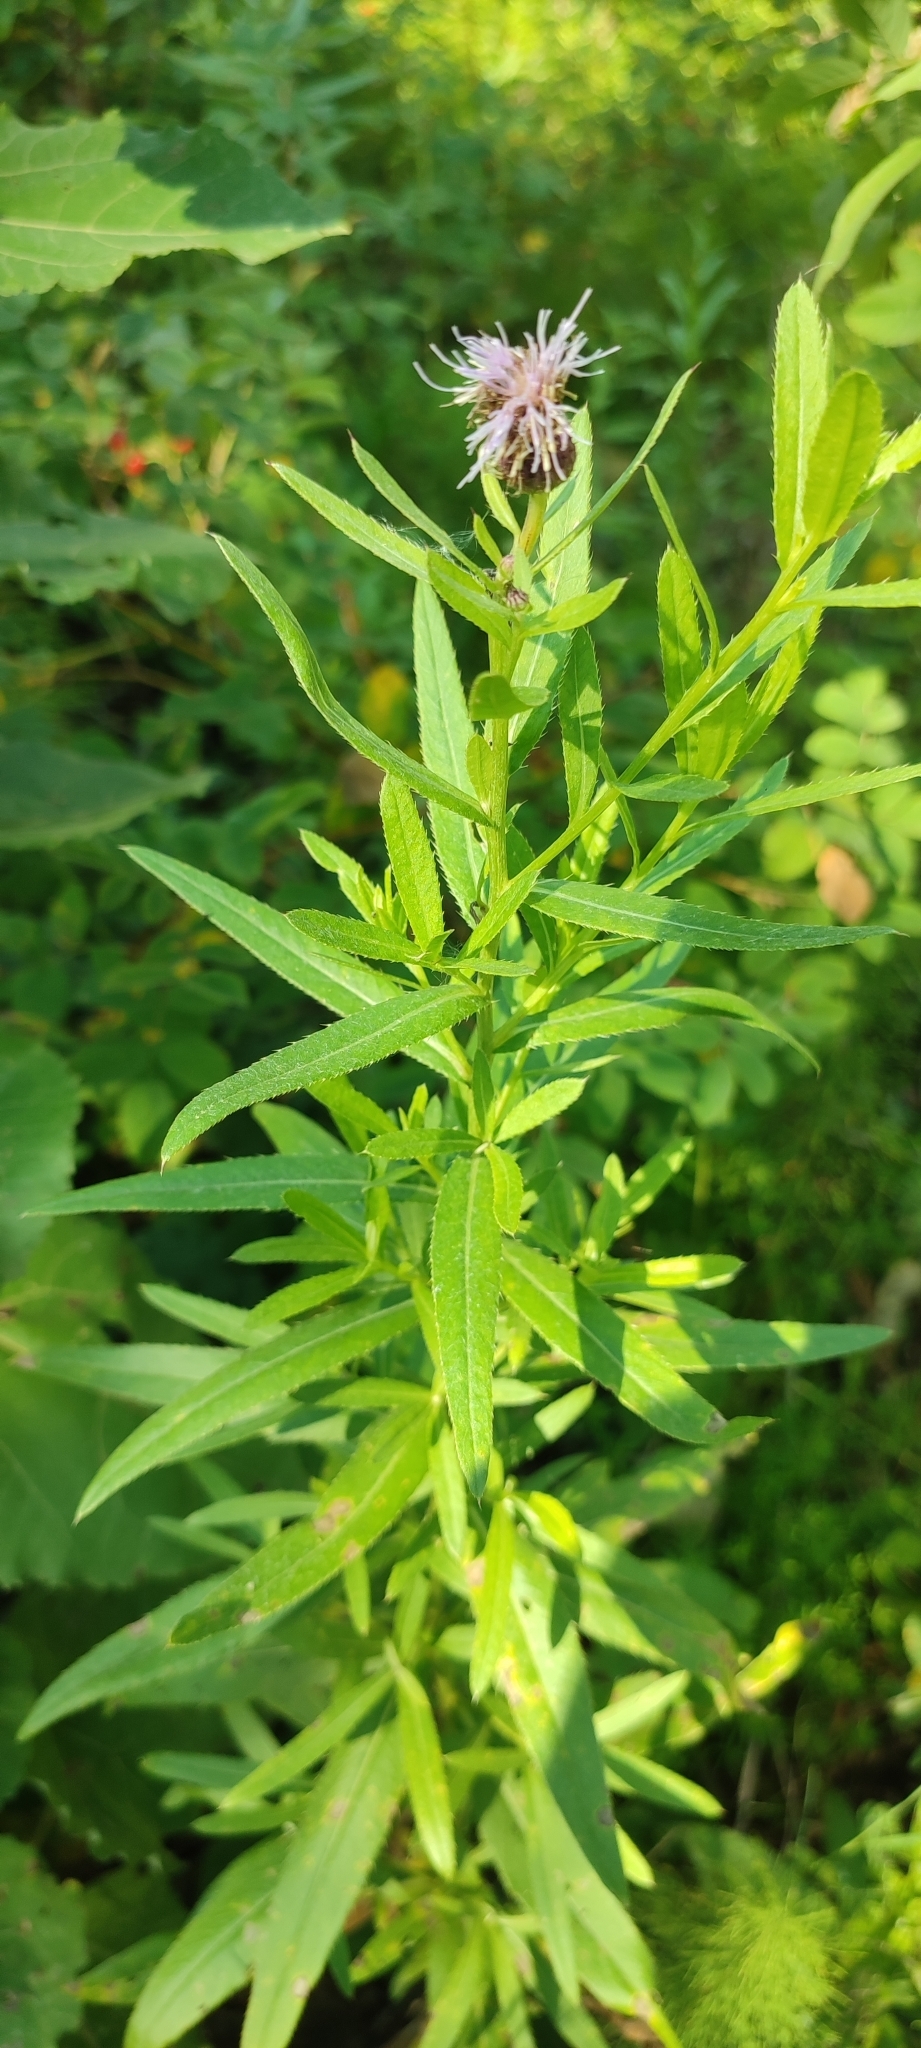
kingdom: Plantae
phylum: Tracheophyta
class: Magnoliopsida
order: Asterales
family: Asteraceae
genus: Cirsium
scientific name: Cirsium arvense
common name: Creeping thistle
